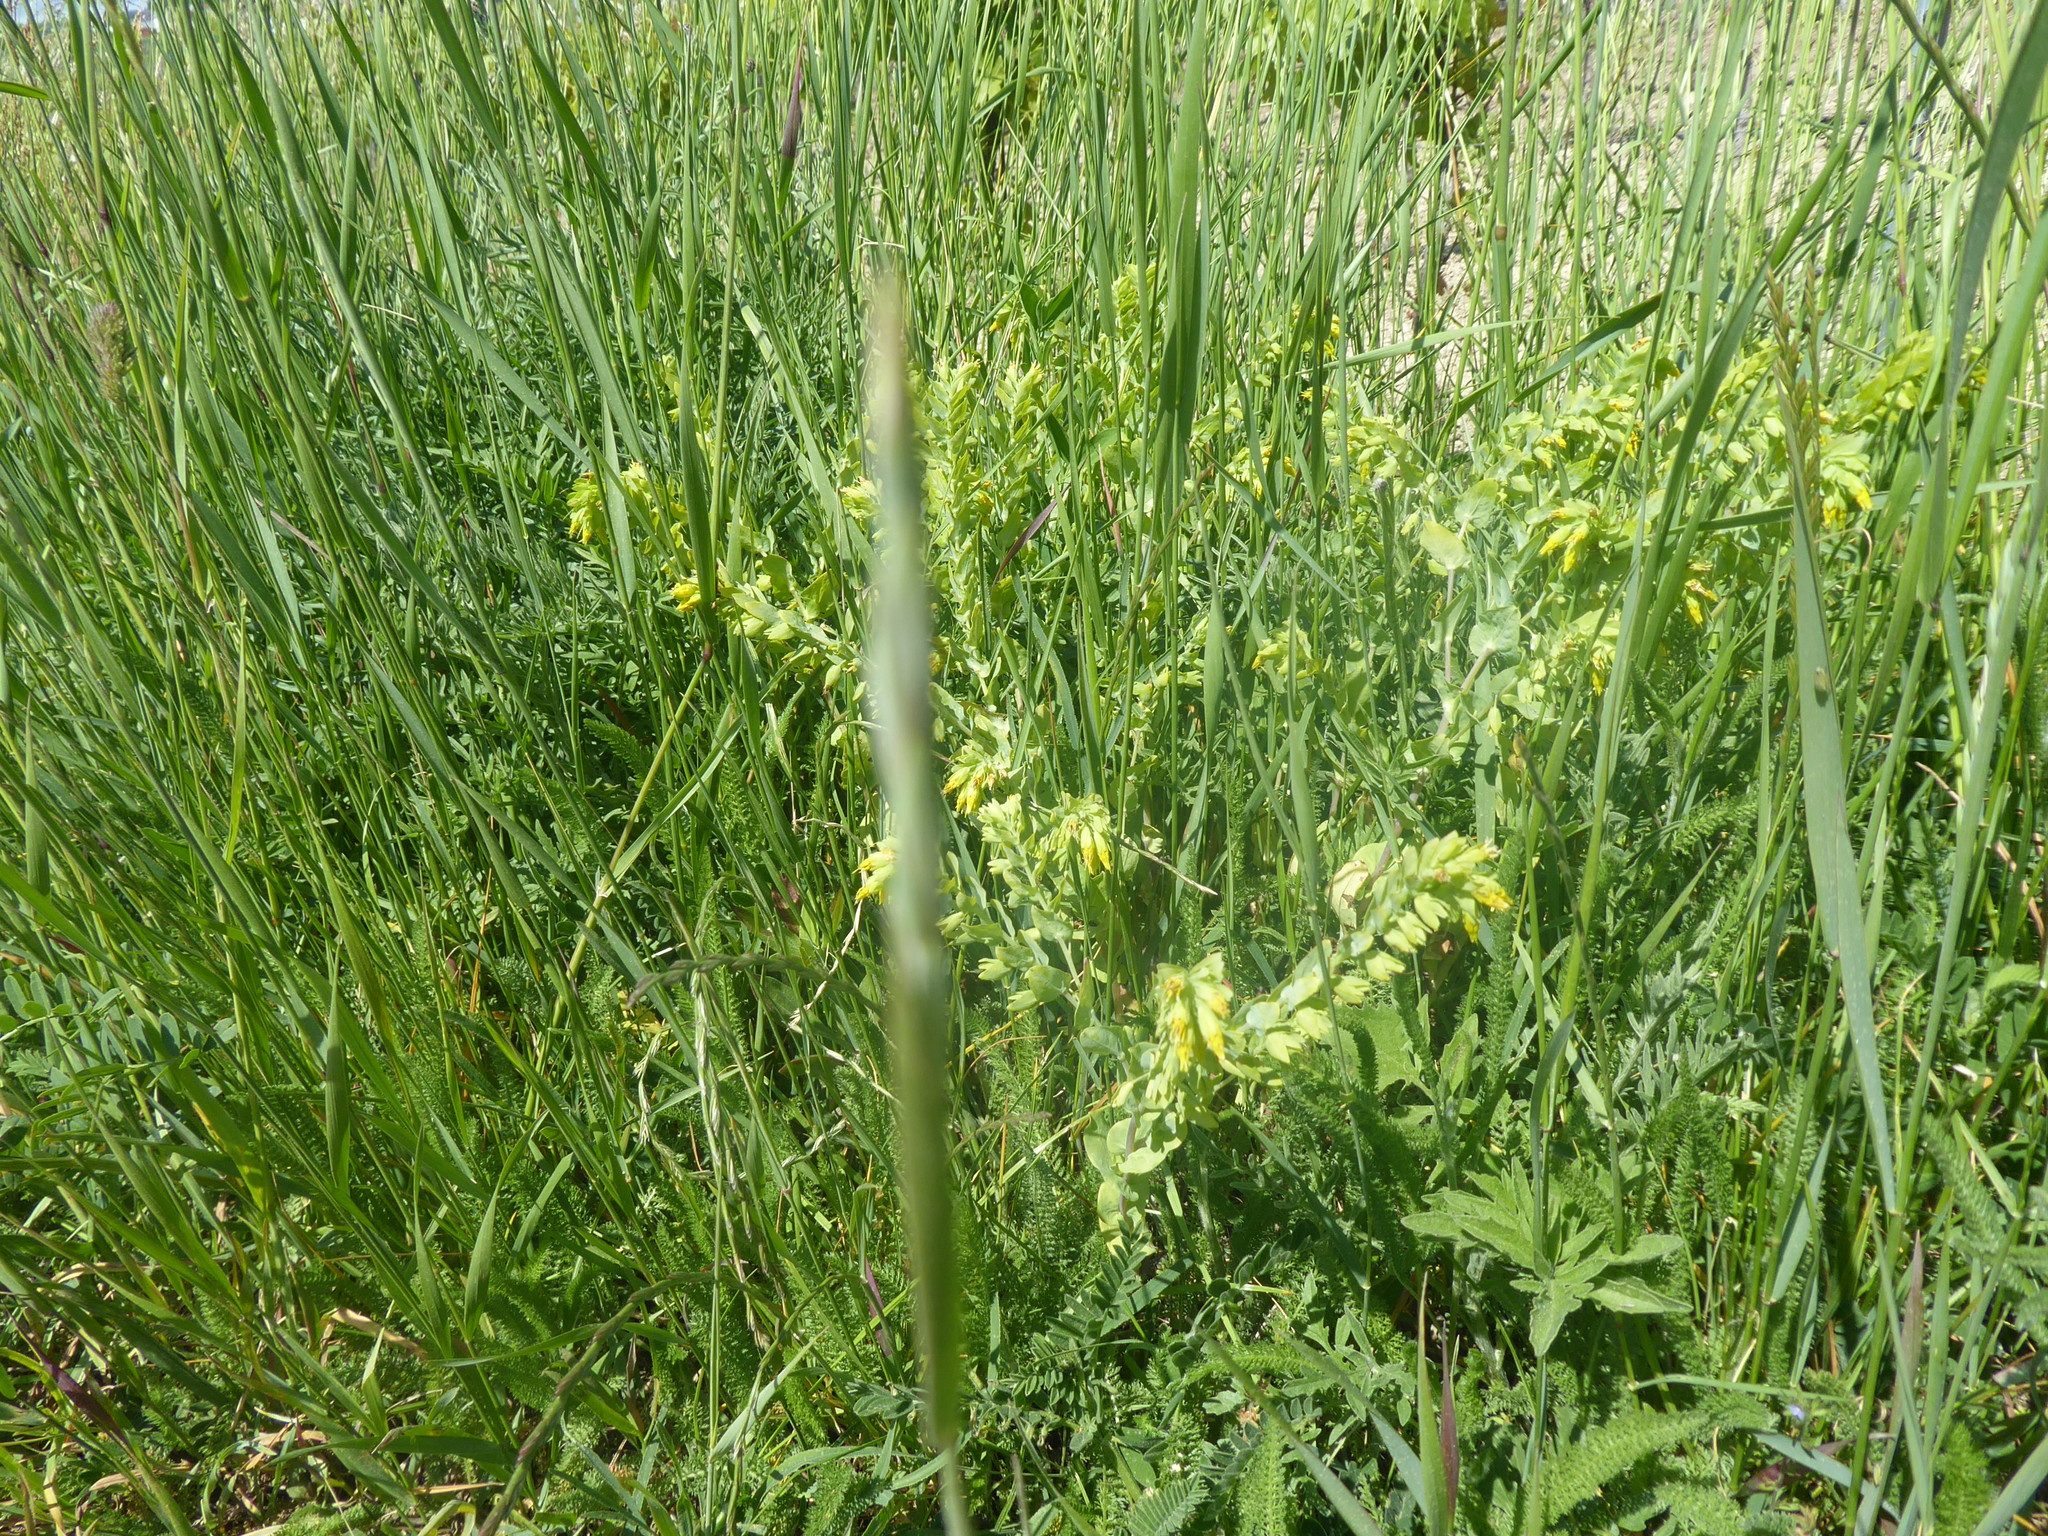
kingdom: Plantae
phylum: Tracheophyta
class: Magnoliopsida
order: Boraginales
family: Boraginaceae
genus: Cerinthe
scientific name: Cerinthe minor
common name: Lesser honeywort
